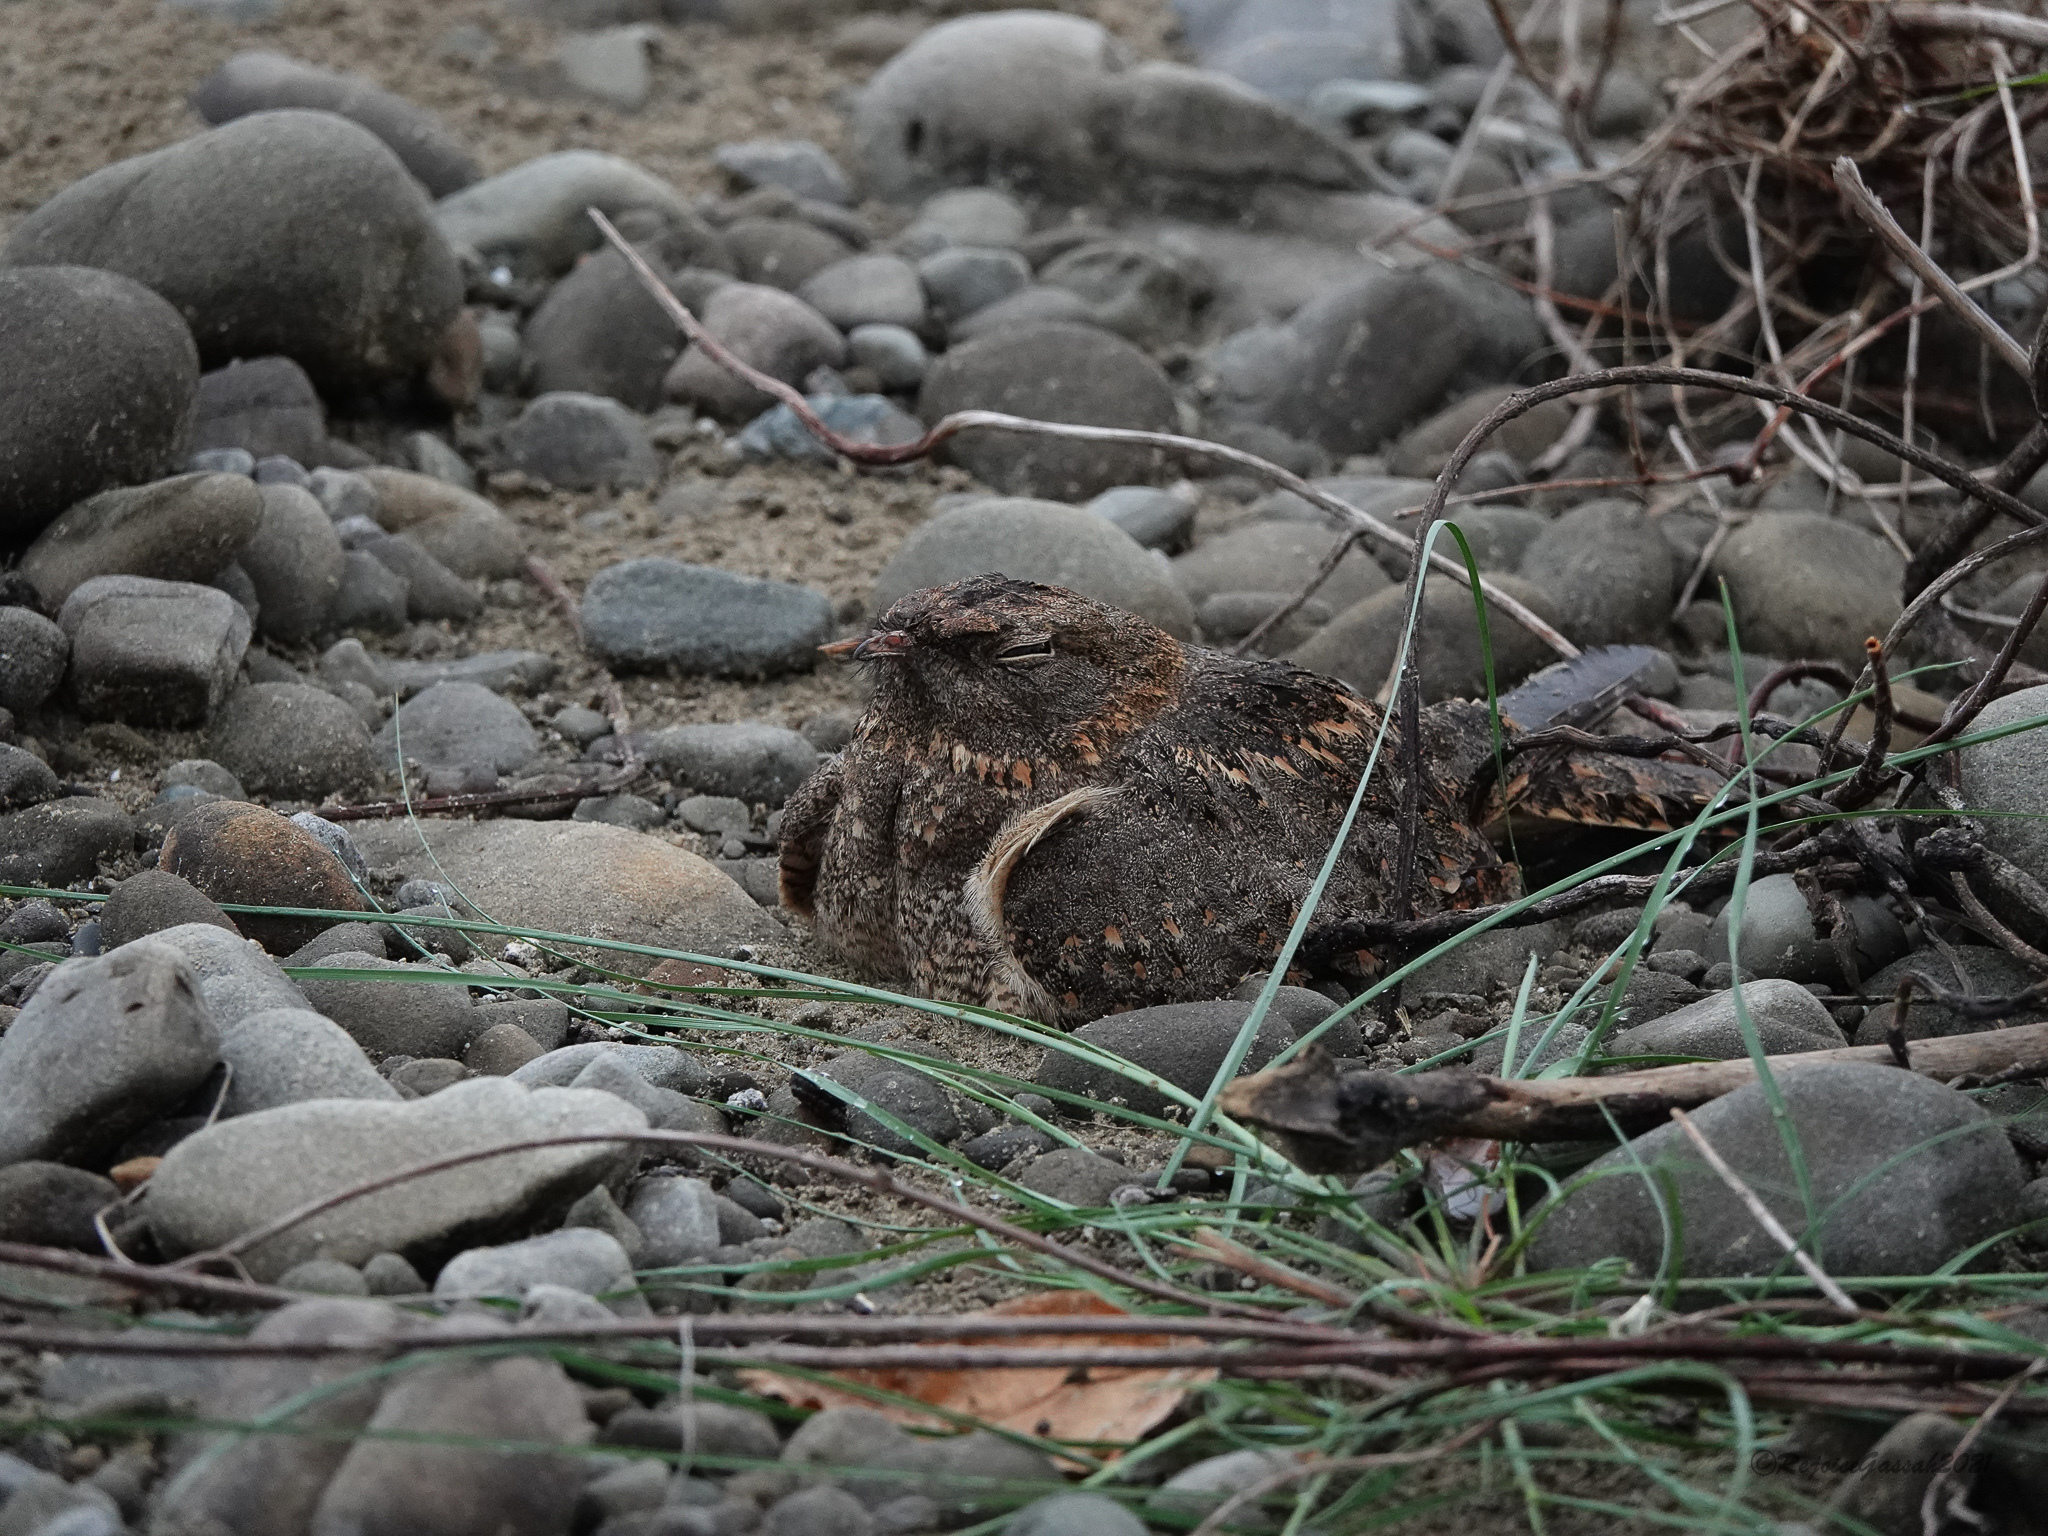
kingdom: Animalia
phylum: Chordata
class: Aves
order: Caprimulgiformes
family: Caprimulgidae
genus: Caprimulgus
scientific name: Caprimulgus affinis
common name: Savanna nightjar
